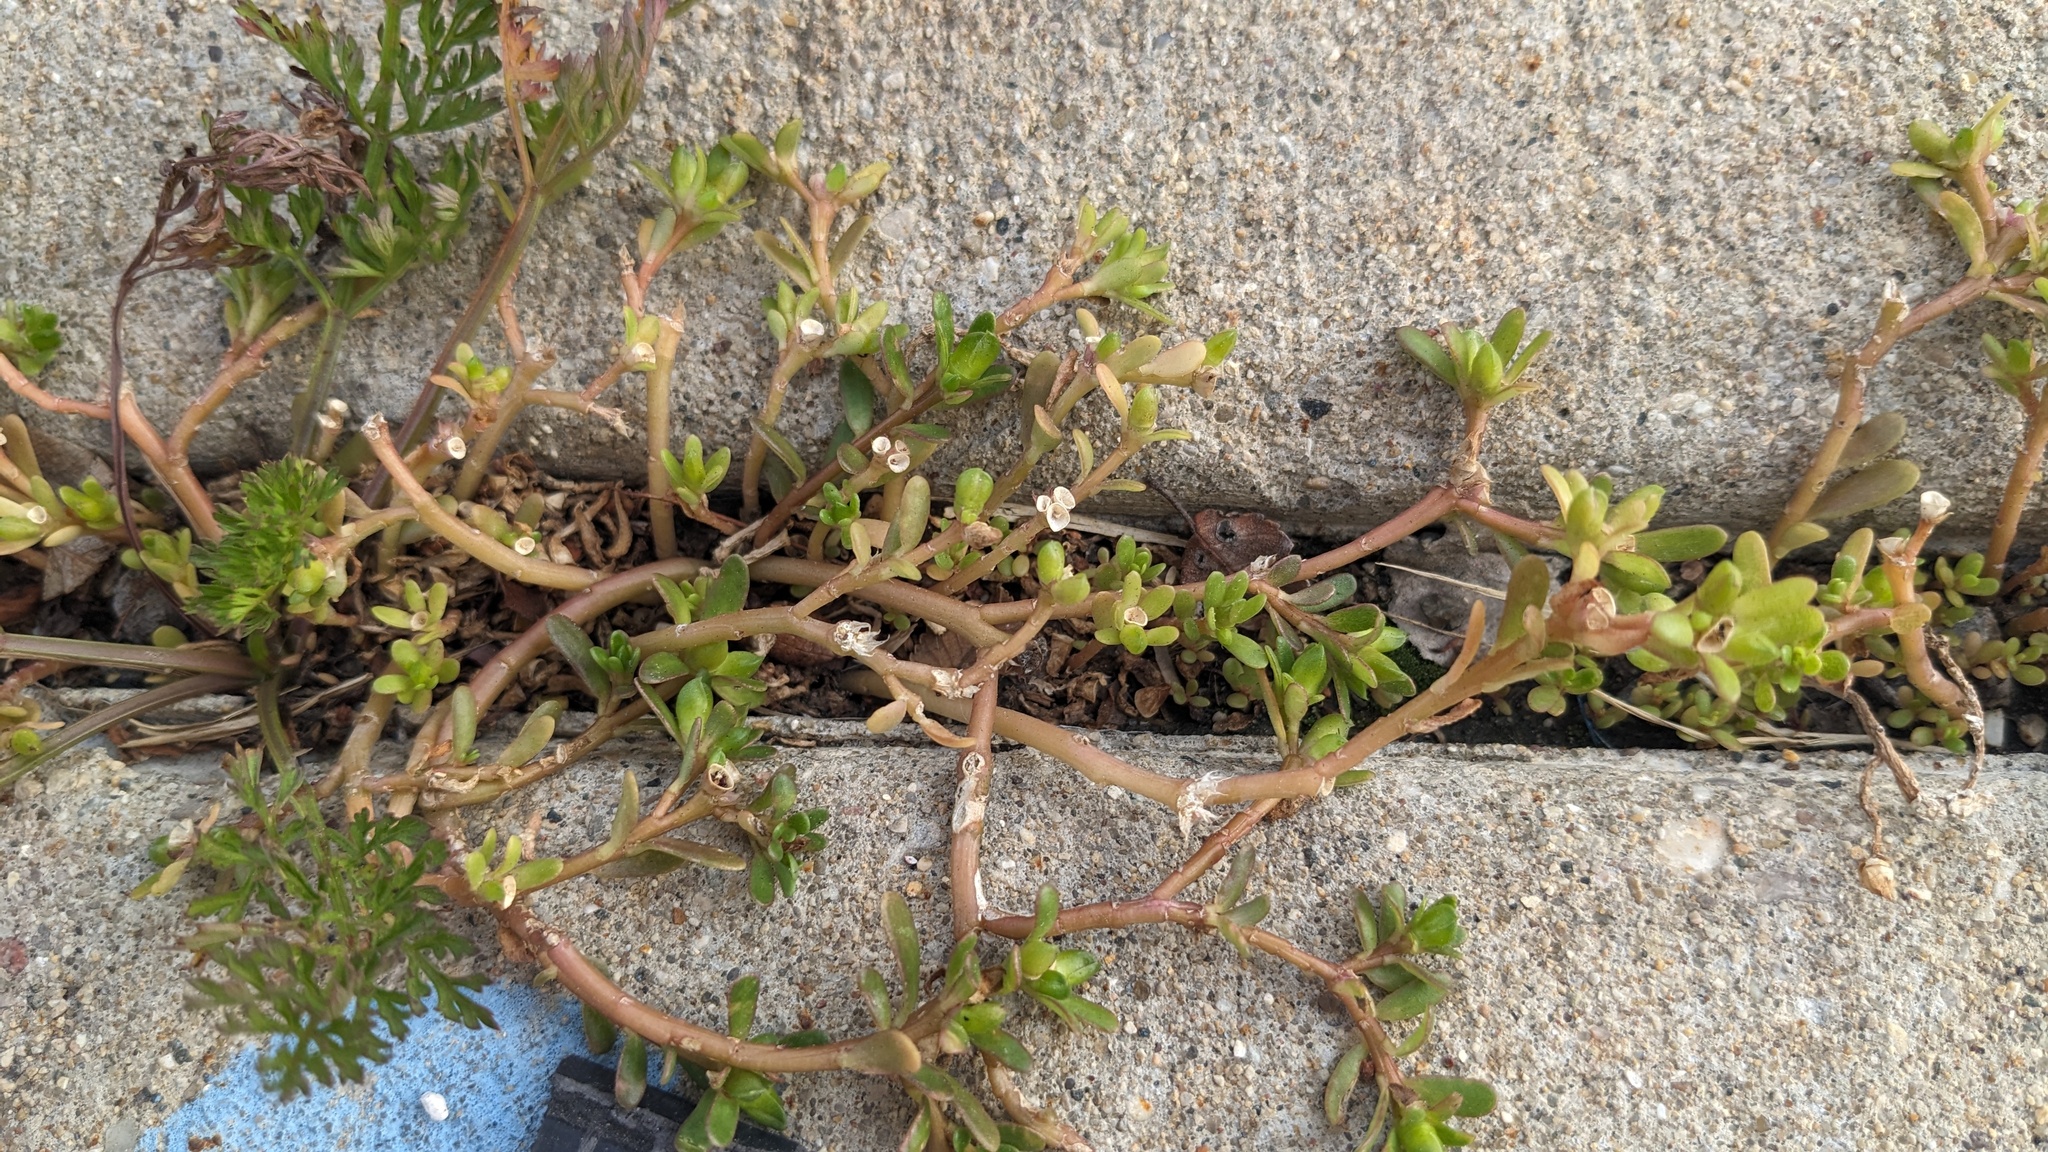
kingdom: Plantae
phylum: Tracheophyta
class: Magnoliopsida
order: Caryophyllales
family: Portulacaceae
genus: Portulaca
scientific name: Portulaca oleracea
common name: Common purslane
